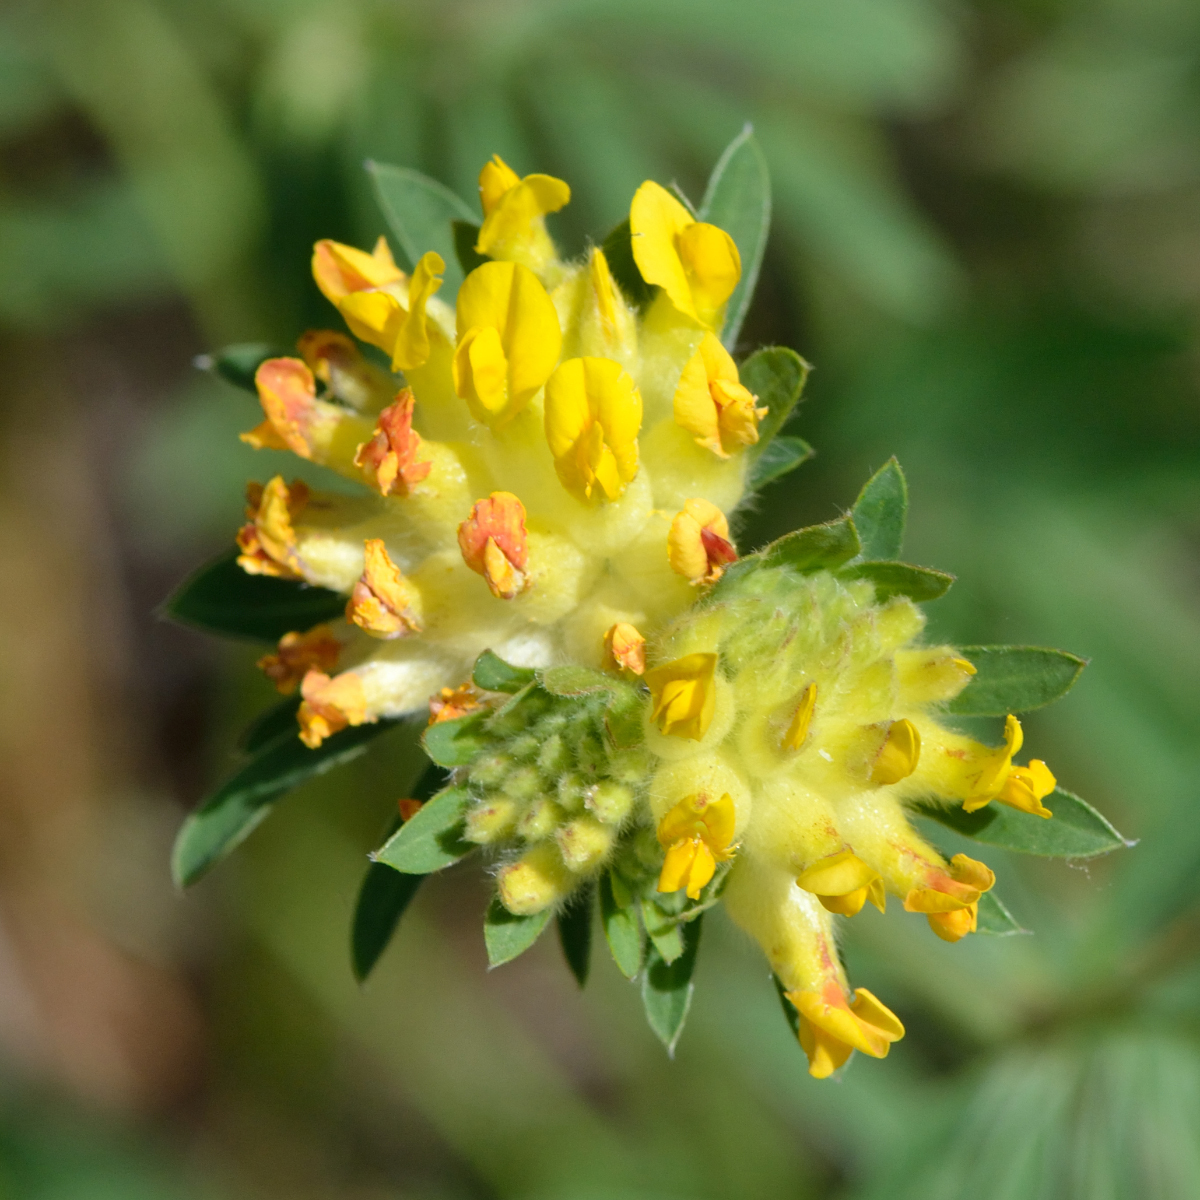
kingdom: Plantae
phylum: Tracheophyta
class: Magnoliopsida
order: Fabales
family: Fabaceae
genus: Anthyllis
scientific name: Anthyllis vulneraria
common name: Kidney vetch
